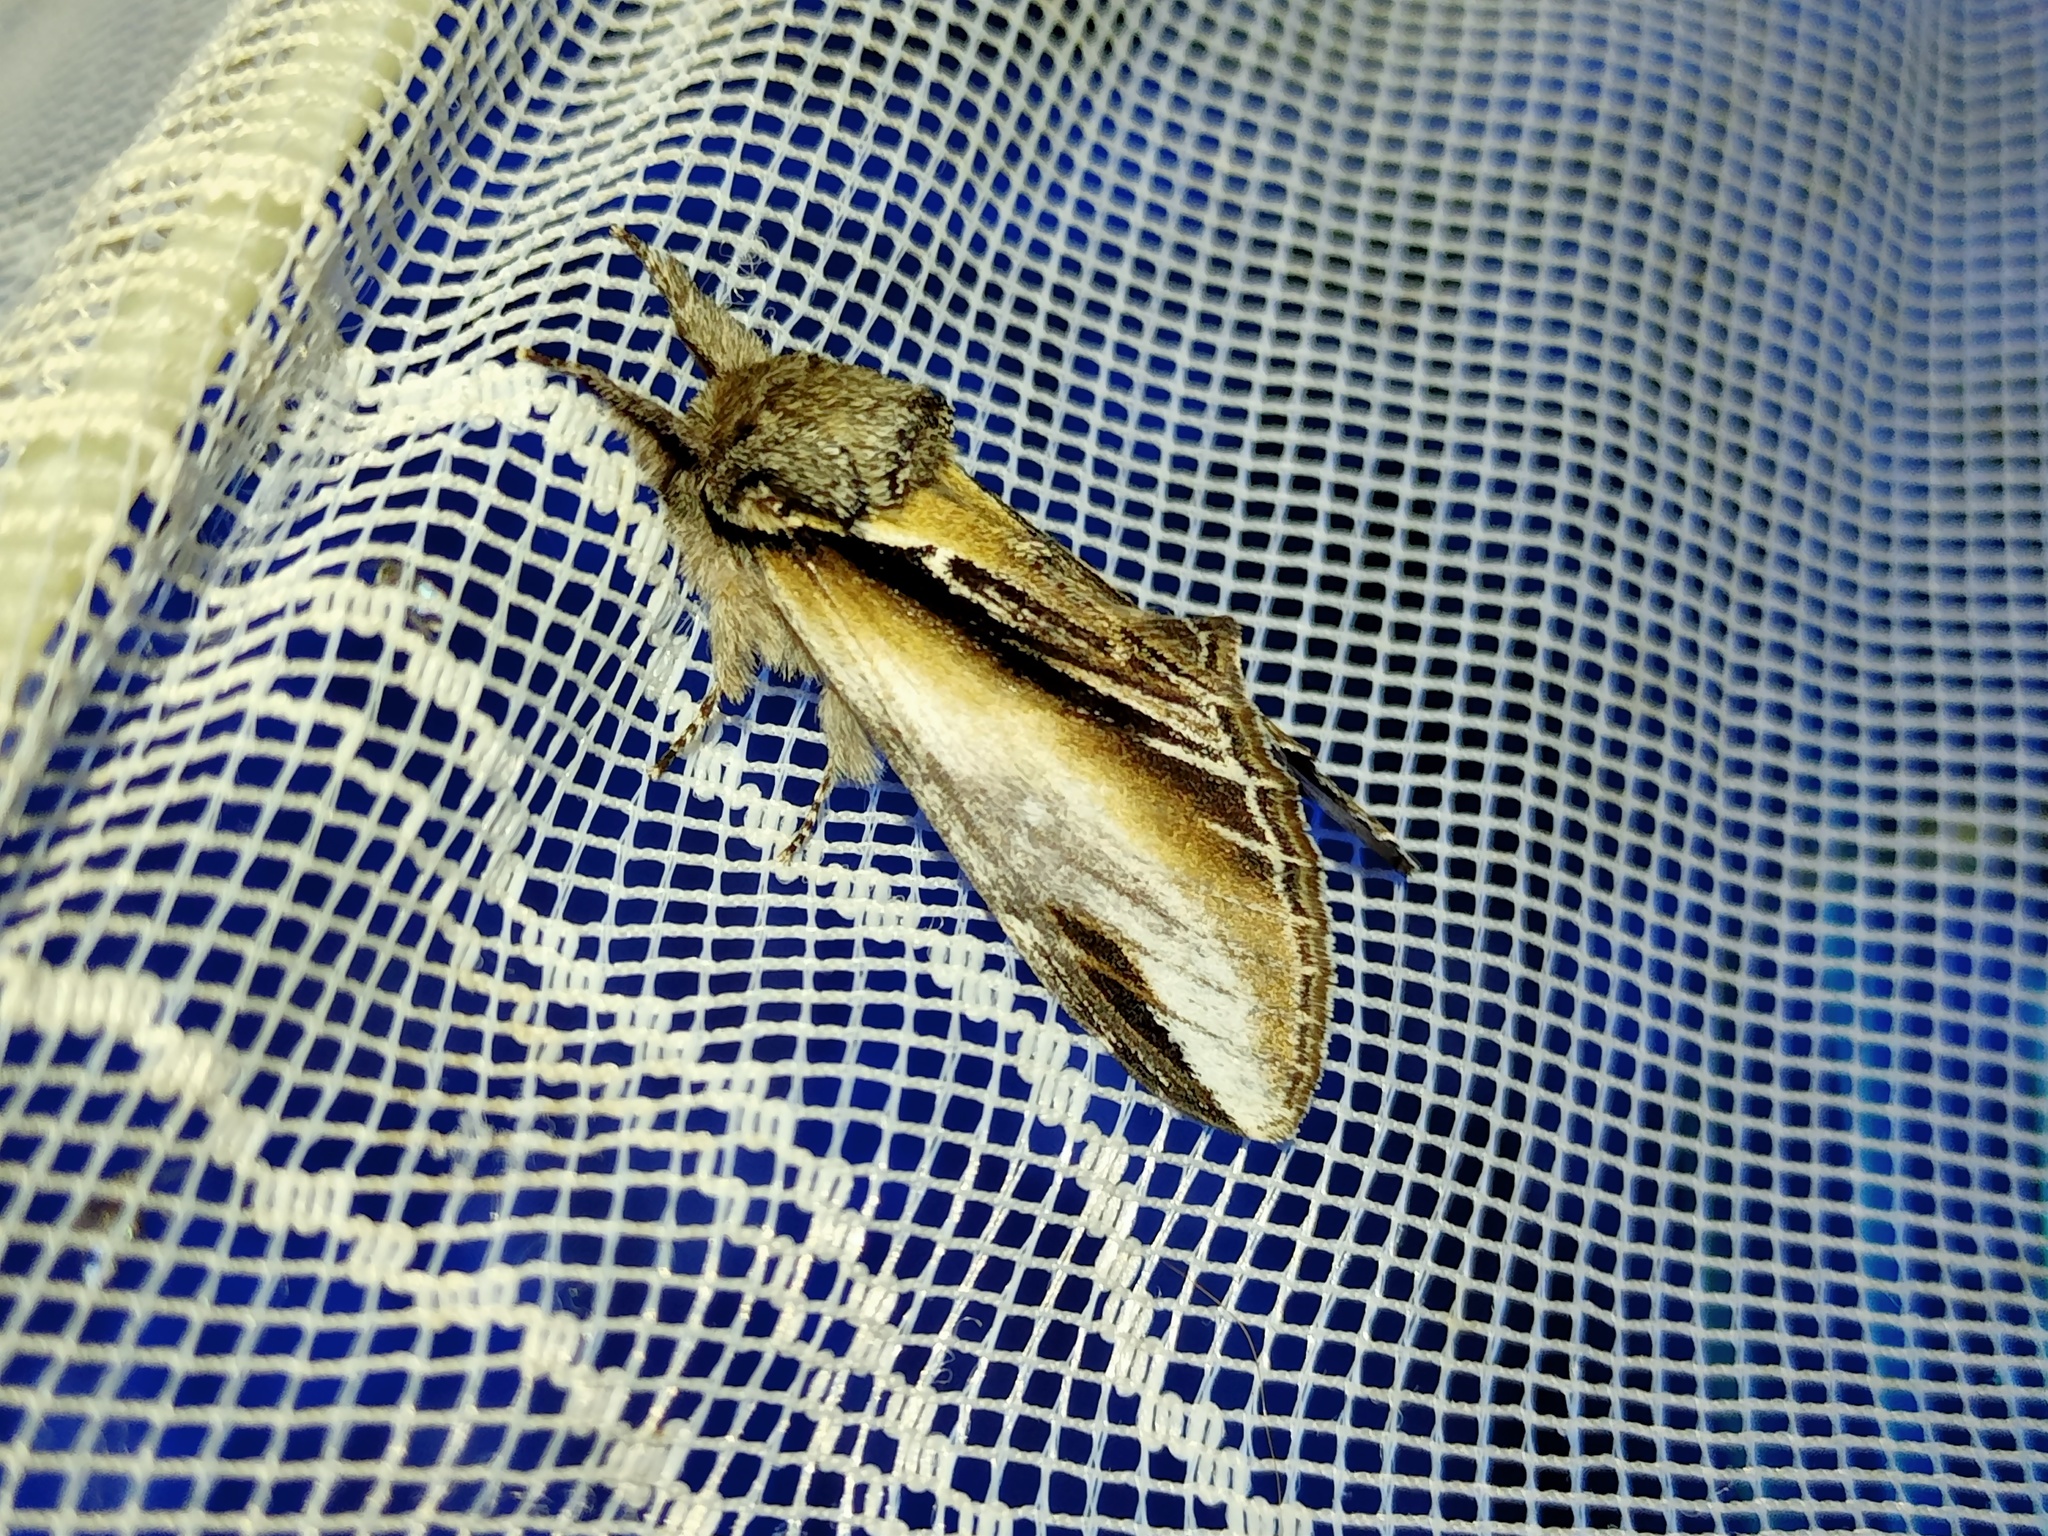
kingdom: Animalia
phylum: Arthropoda
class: Insecta
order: Lepidoptera
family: Notodontidae
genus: Pheosia
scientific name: Pheosia tremula
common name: Swallow prominent
